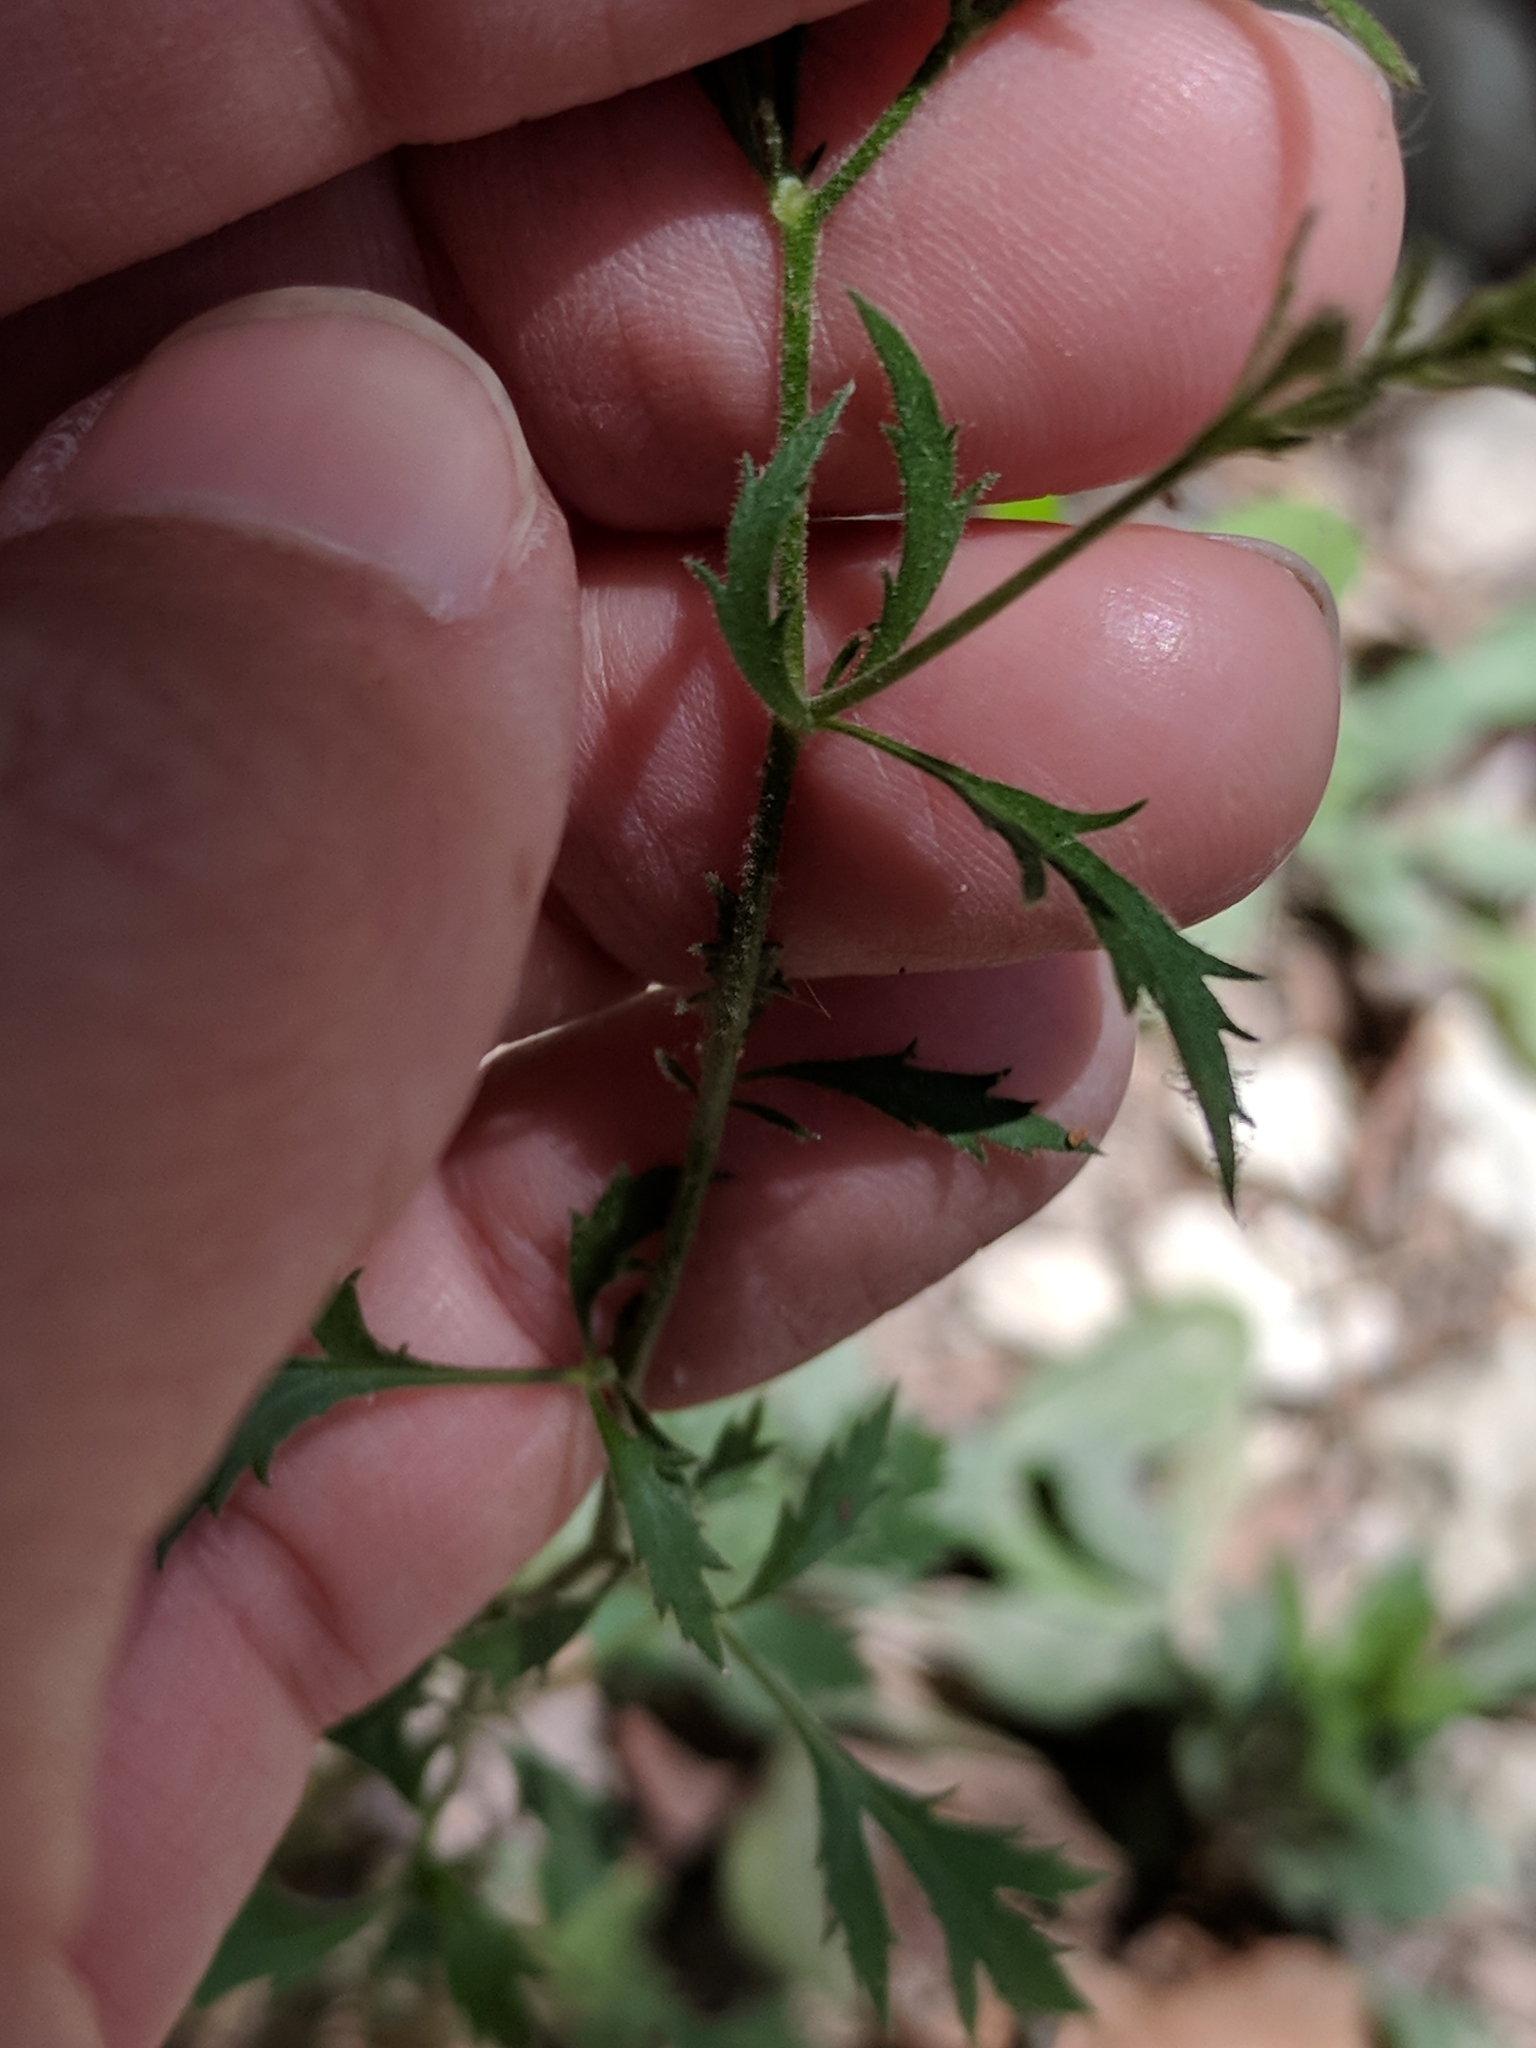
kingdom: Plantae
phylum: Tracheophyta
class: Magnoliopsida
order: Ericales
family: Polemoniaceae
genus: Giliastrum
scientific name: Giliastrum incisum
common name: Splitleaf gilia
